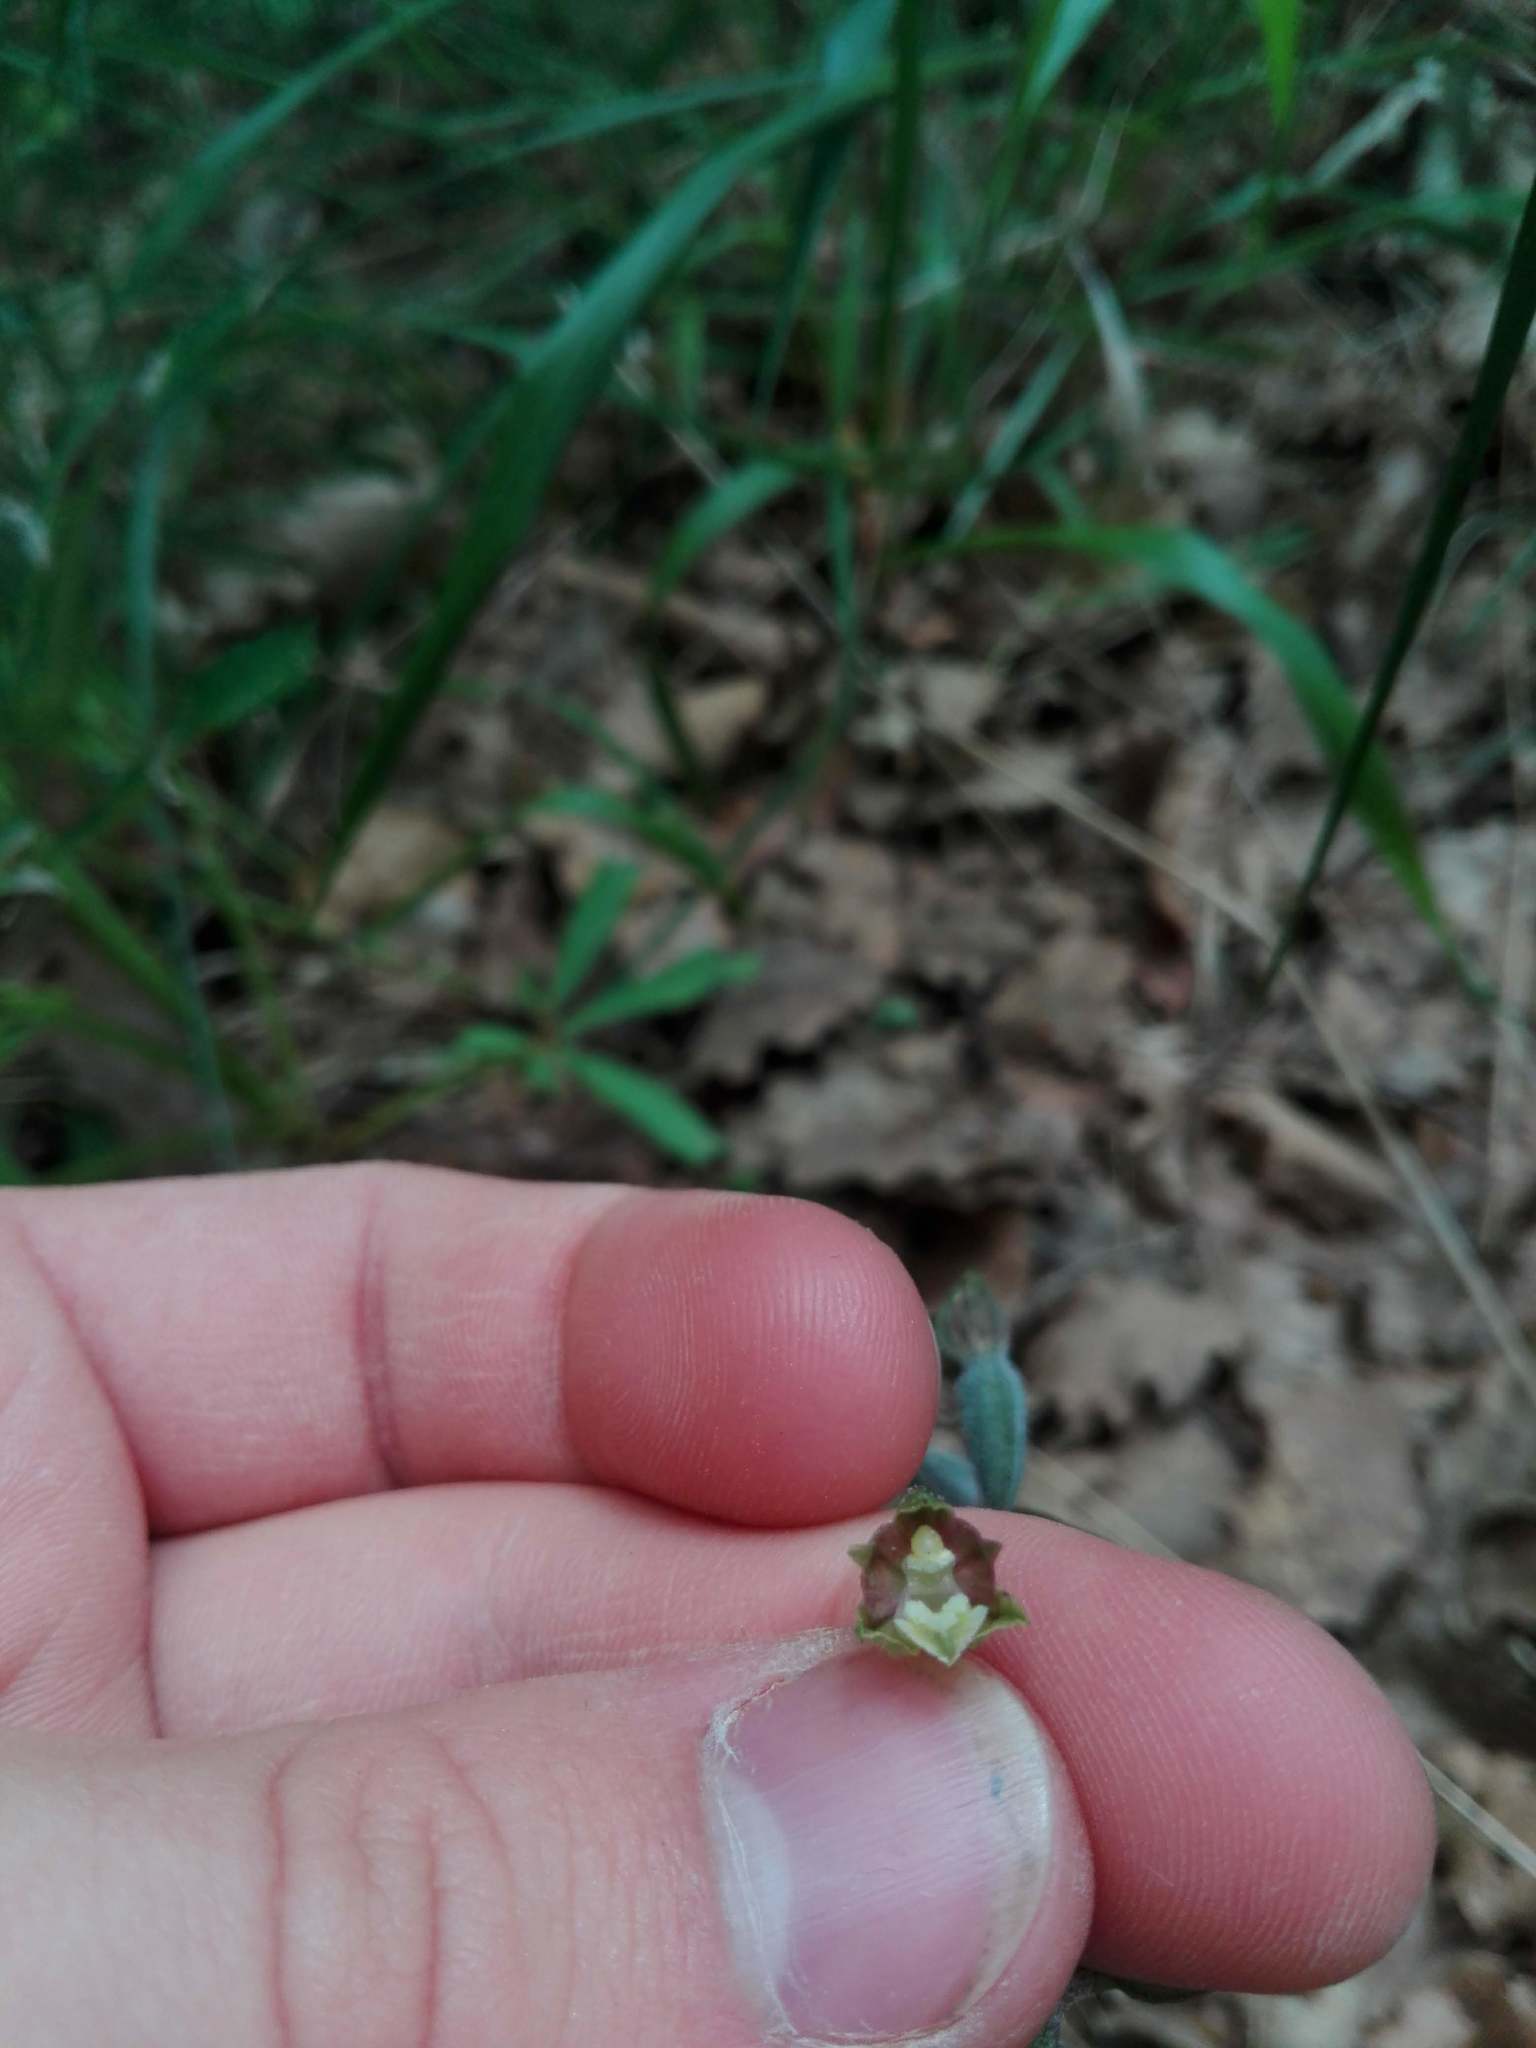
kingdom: Plantae
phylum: Tracheophyta
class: Liliopsida
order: Asparagales
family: Orchidaceae
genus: Epipactis
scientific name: Epipactis microphylla
